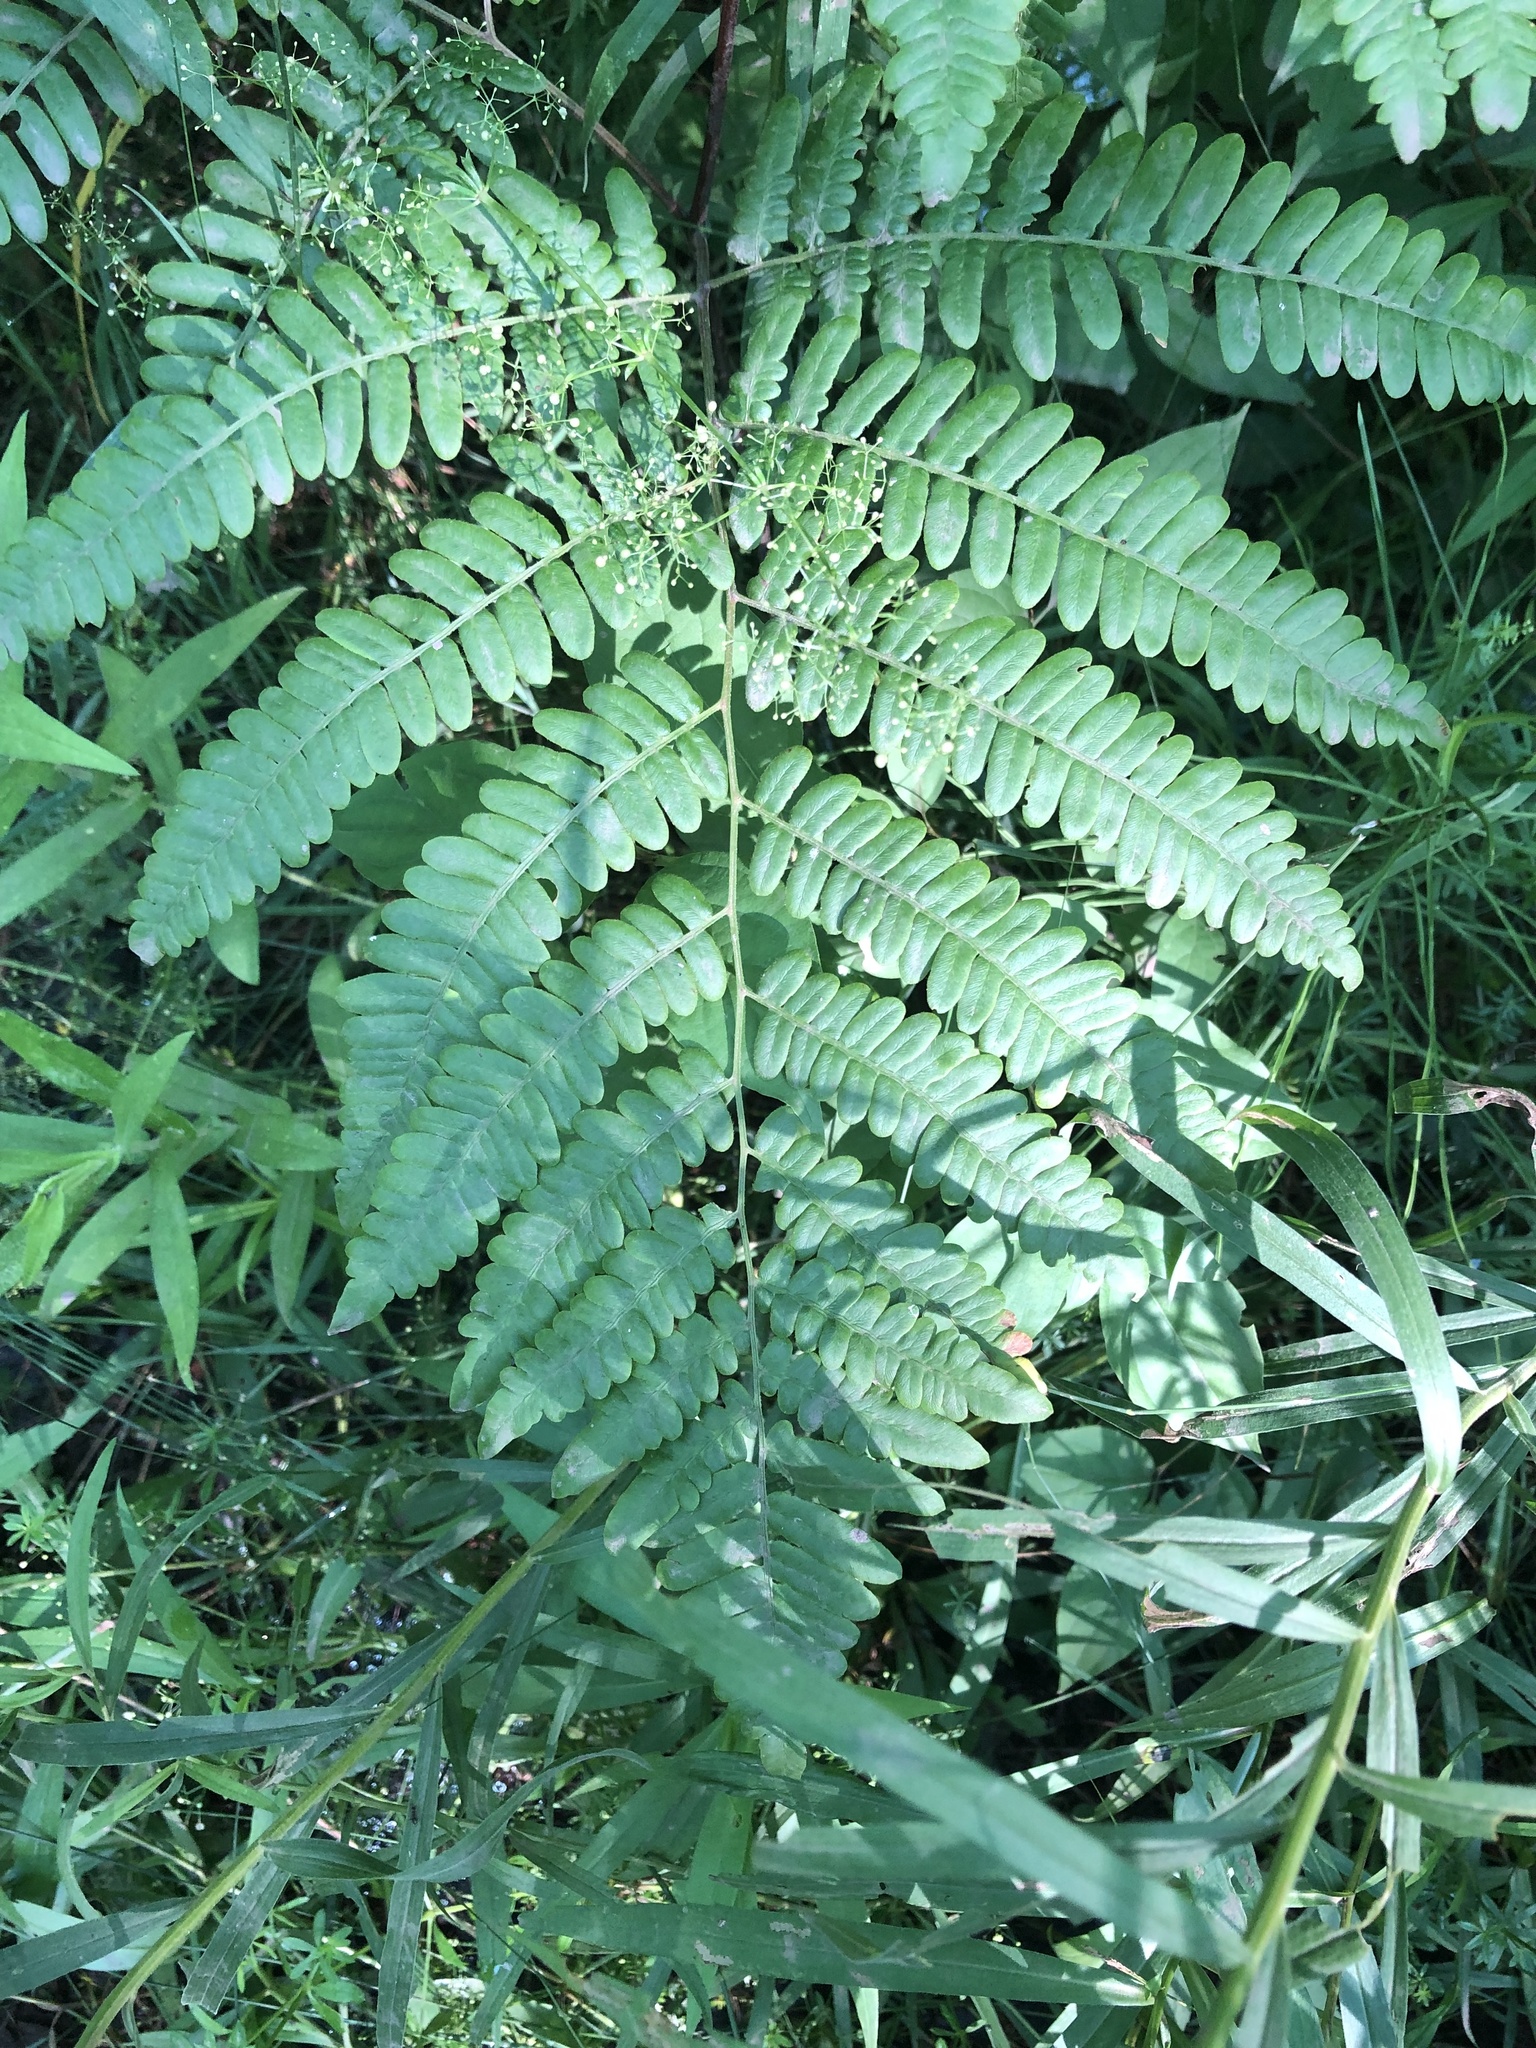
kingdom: Plantae
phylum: Tracheophyta
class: Polypodiopsida
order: Polypodiales
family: Dennstaedtiaceae
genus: Pteridium
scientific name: Pteridium aquilinum
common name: Bracken
